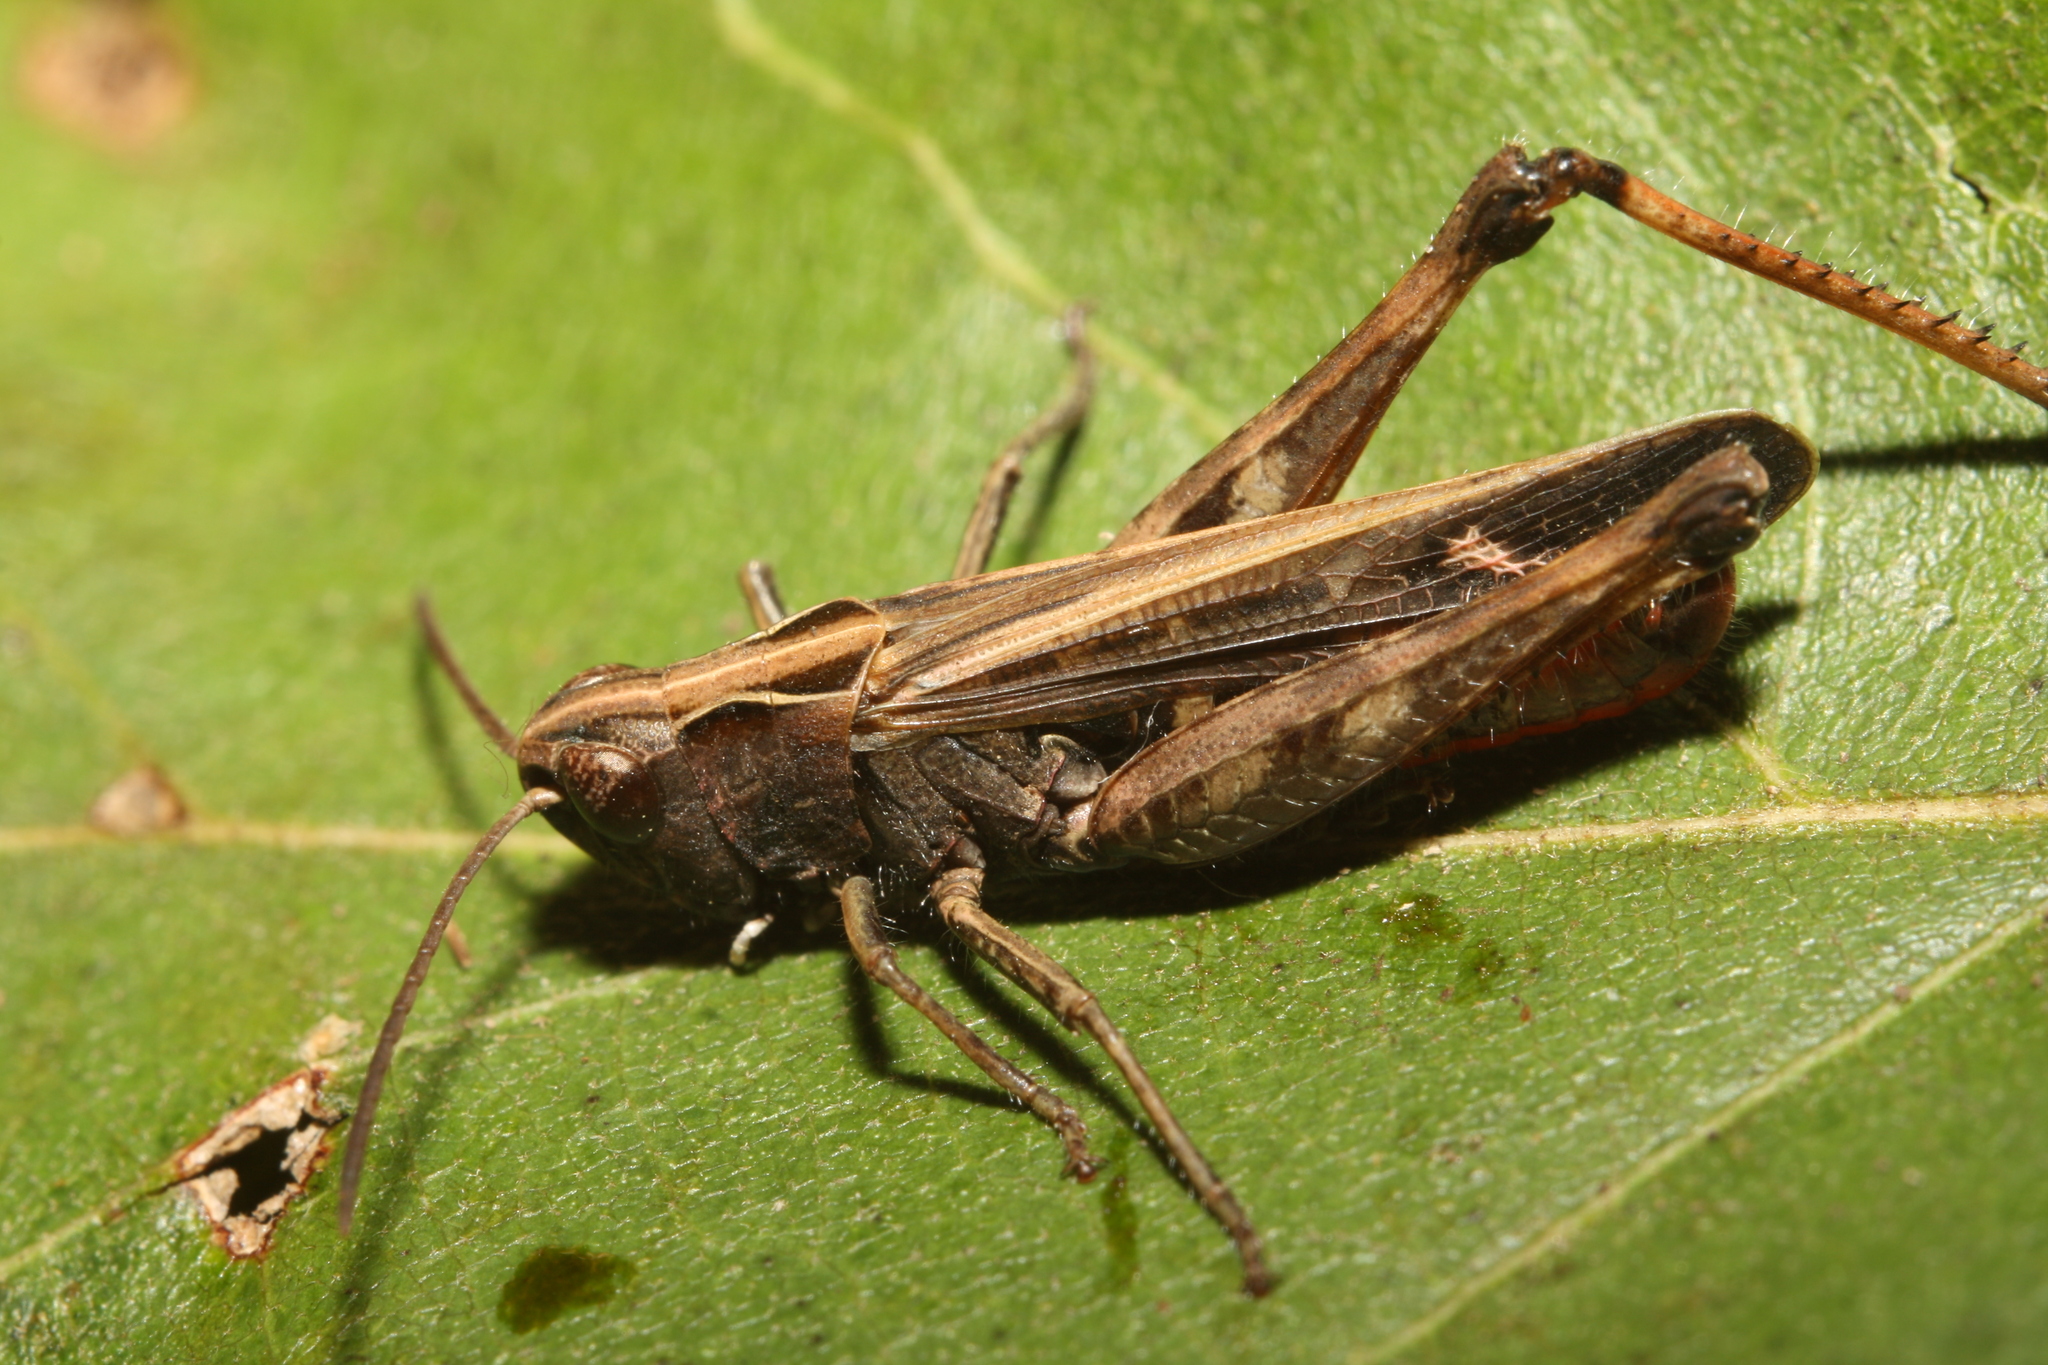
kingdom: Animalia
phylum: Arthropoda
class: Insecta
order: Orthoptera
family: Acrididae
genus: Omocestus
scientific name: Omocestus rufipes
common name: Woodland grasshopper
